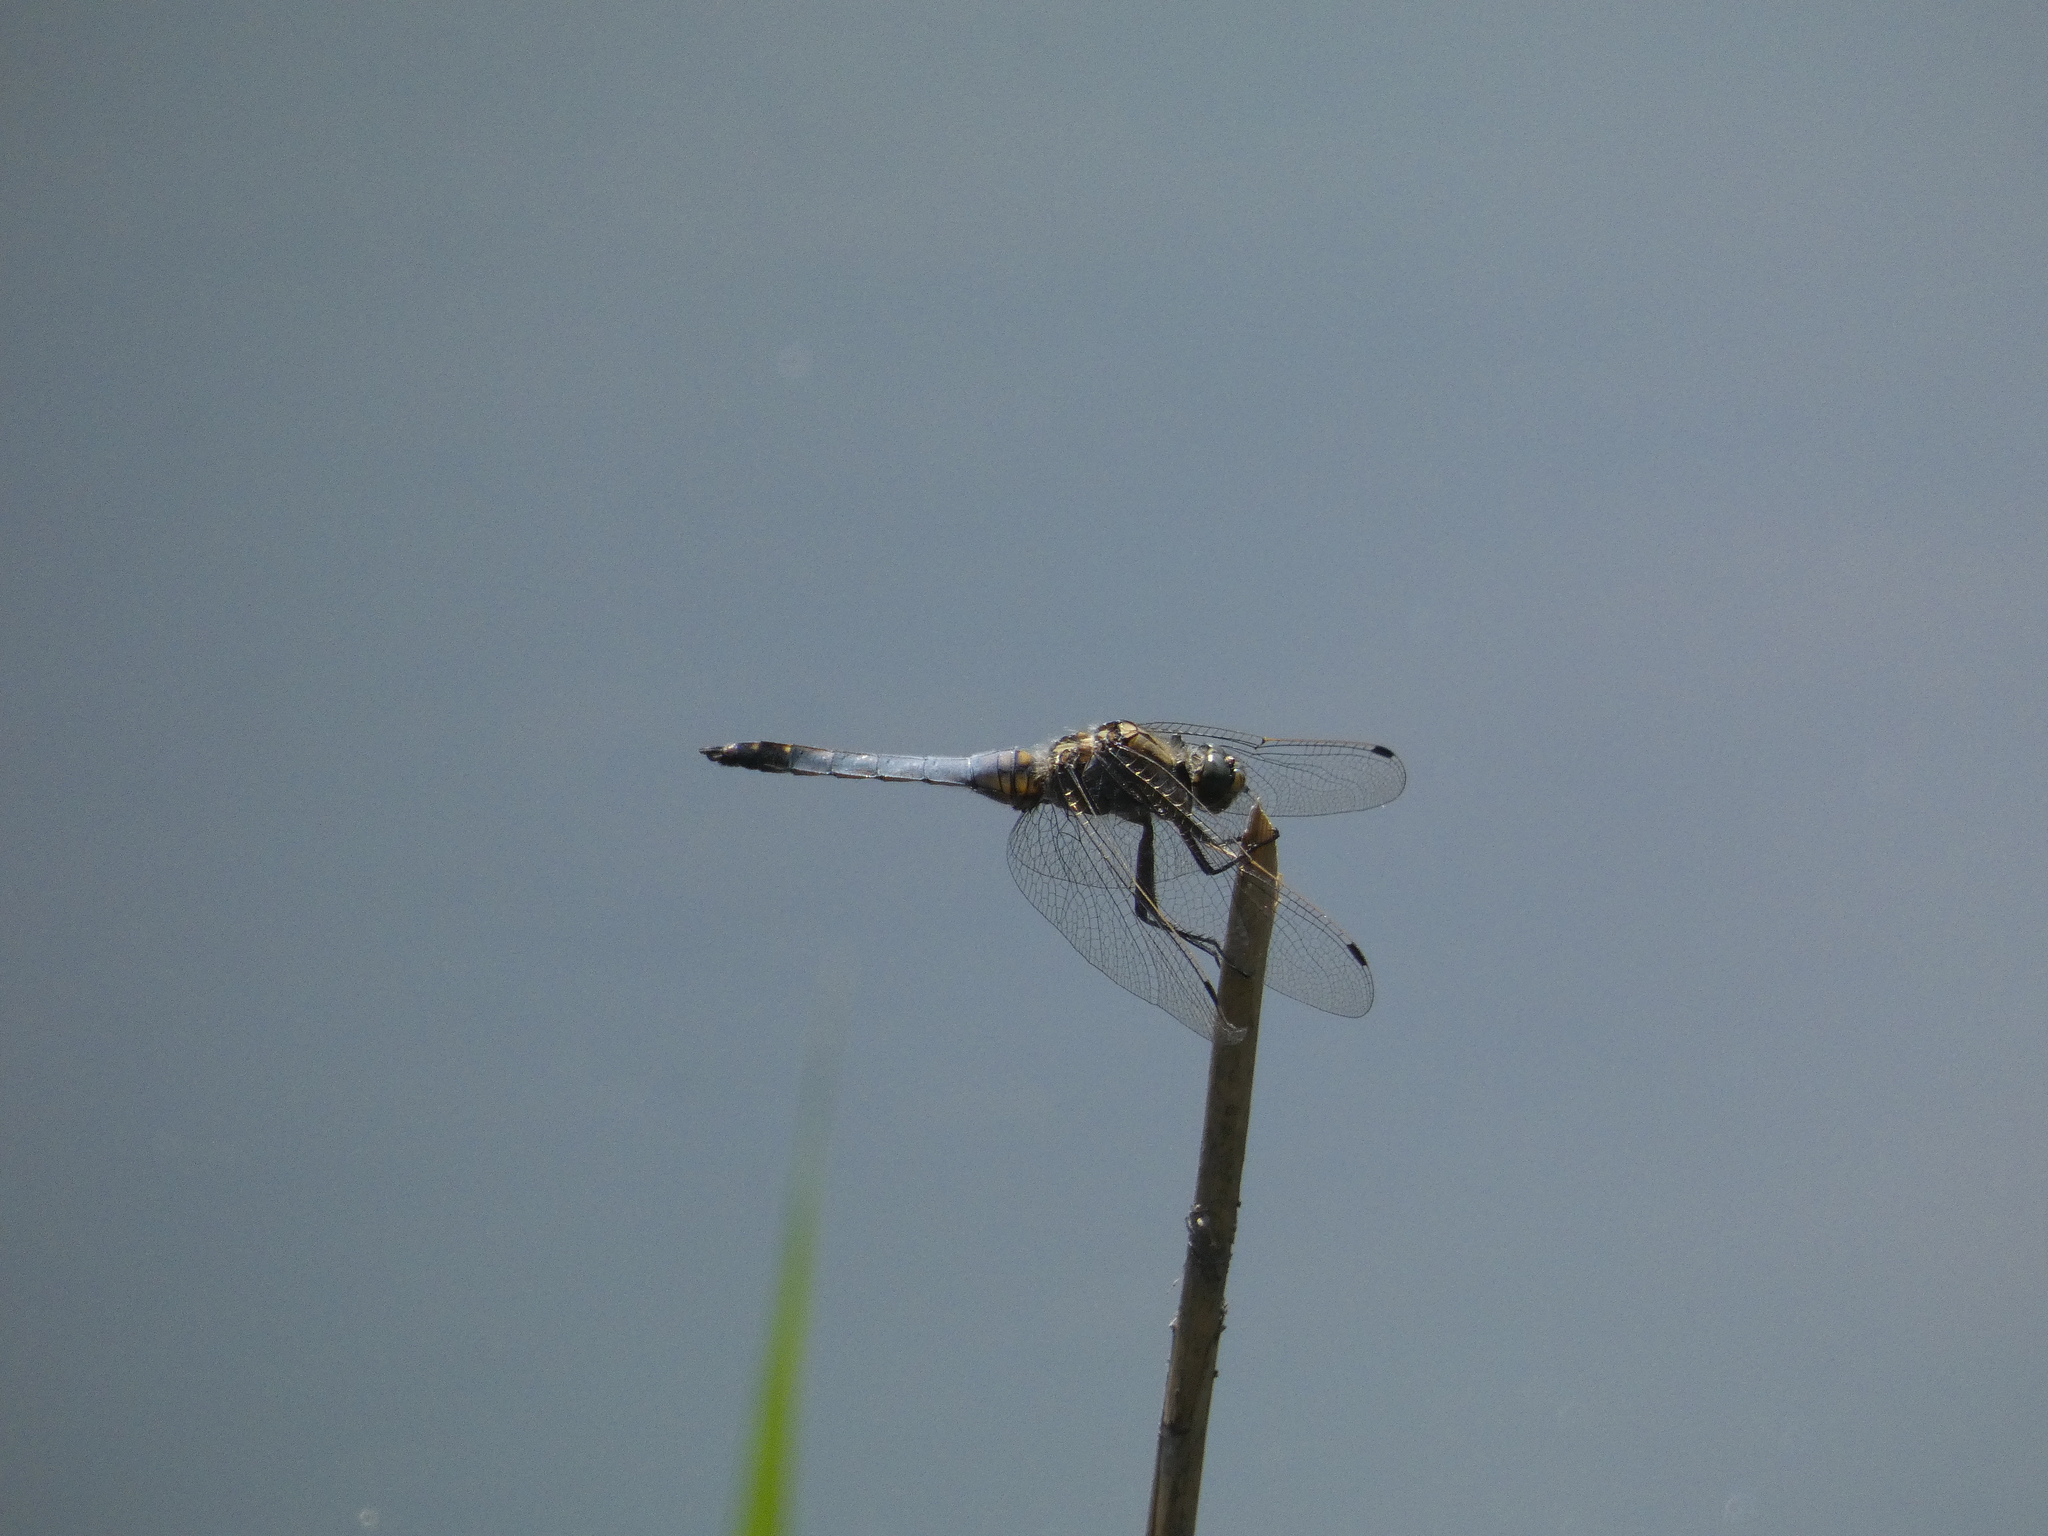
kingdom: Animalia
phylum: Arthropoda
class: Insecta
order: Odonata
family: Libellulidae
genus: Orthetrum
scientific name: Orthetrum cancellatum
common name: Black-tailed skimmer
